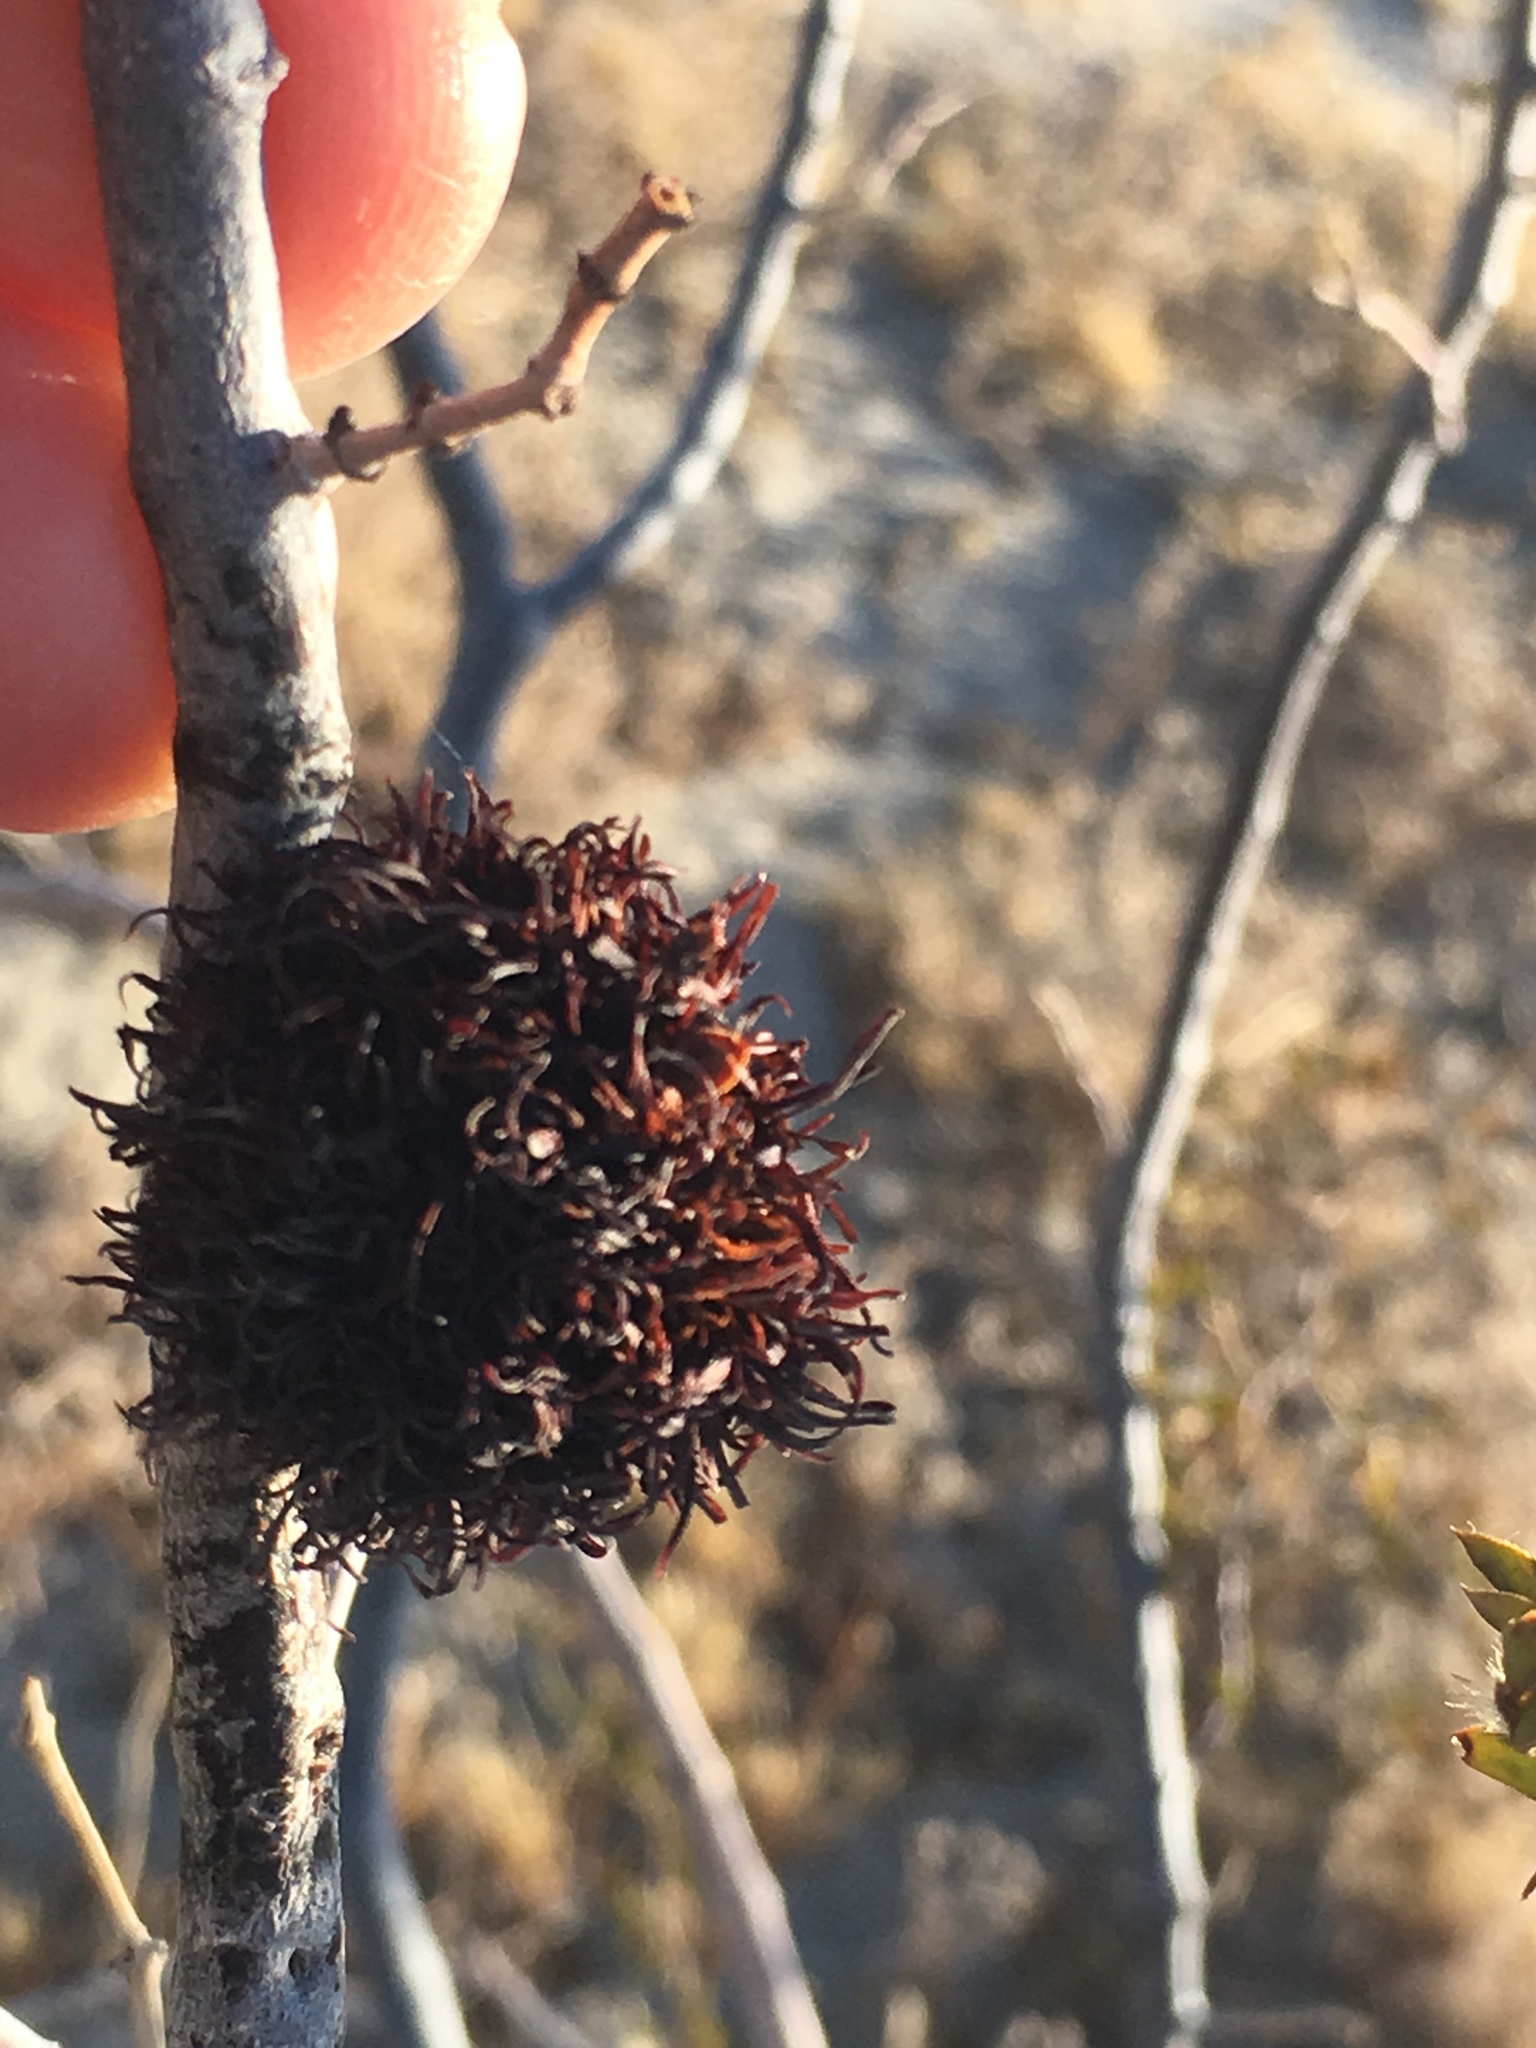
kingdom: Animalia
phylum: Arthropoda
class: Insecta
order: Diptera
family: Cecidomyiidae
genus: Asphondylia
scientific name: Asphondylia auripila
